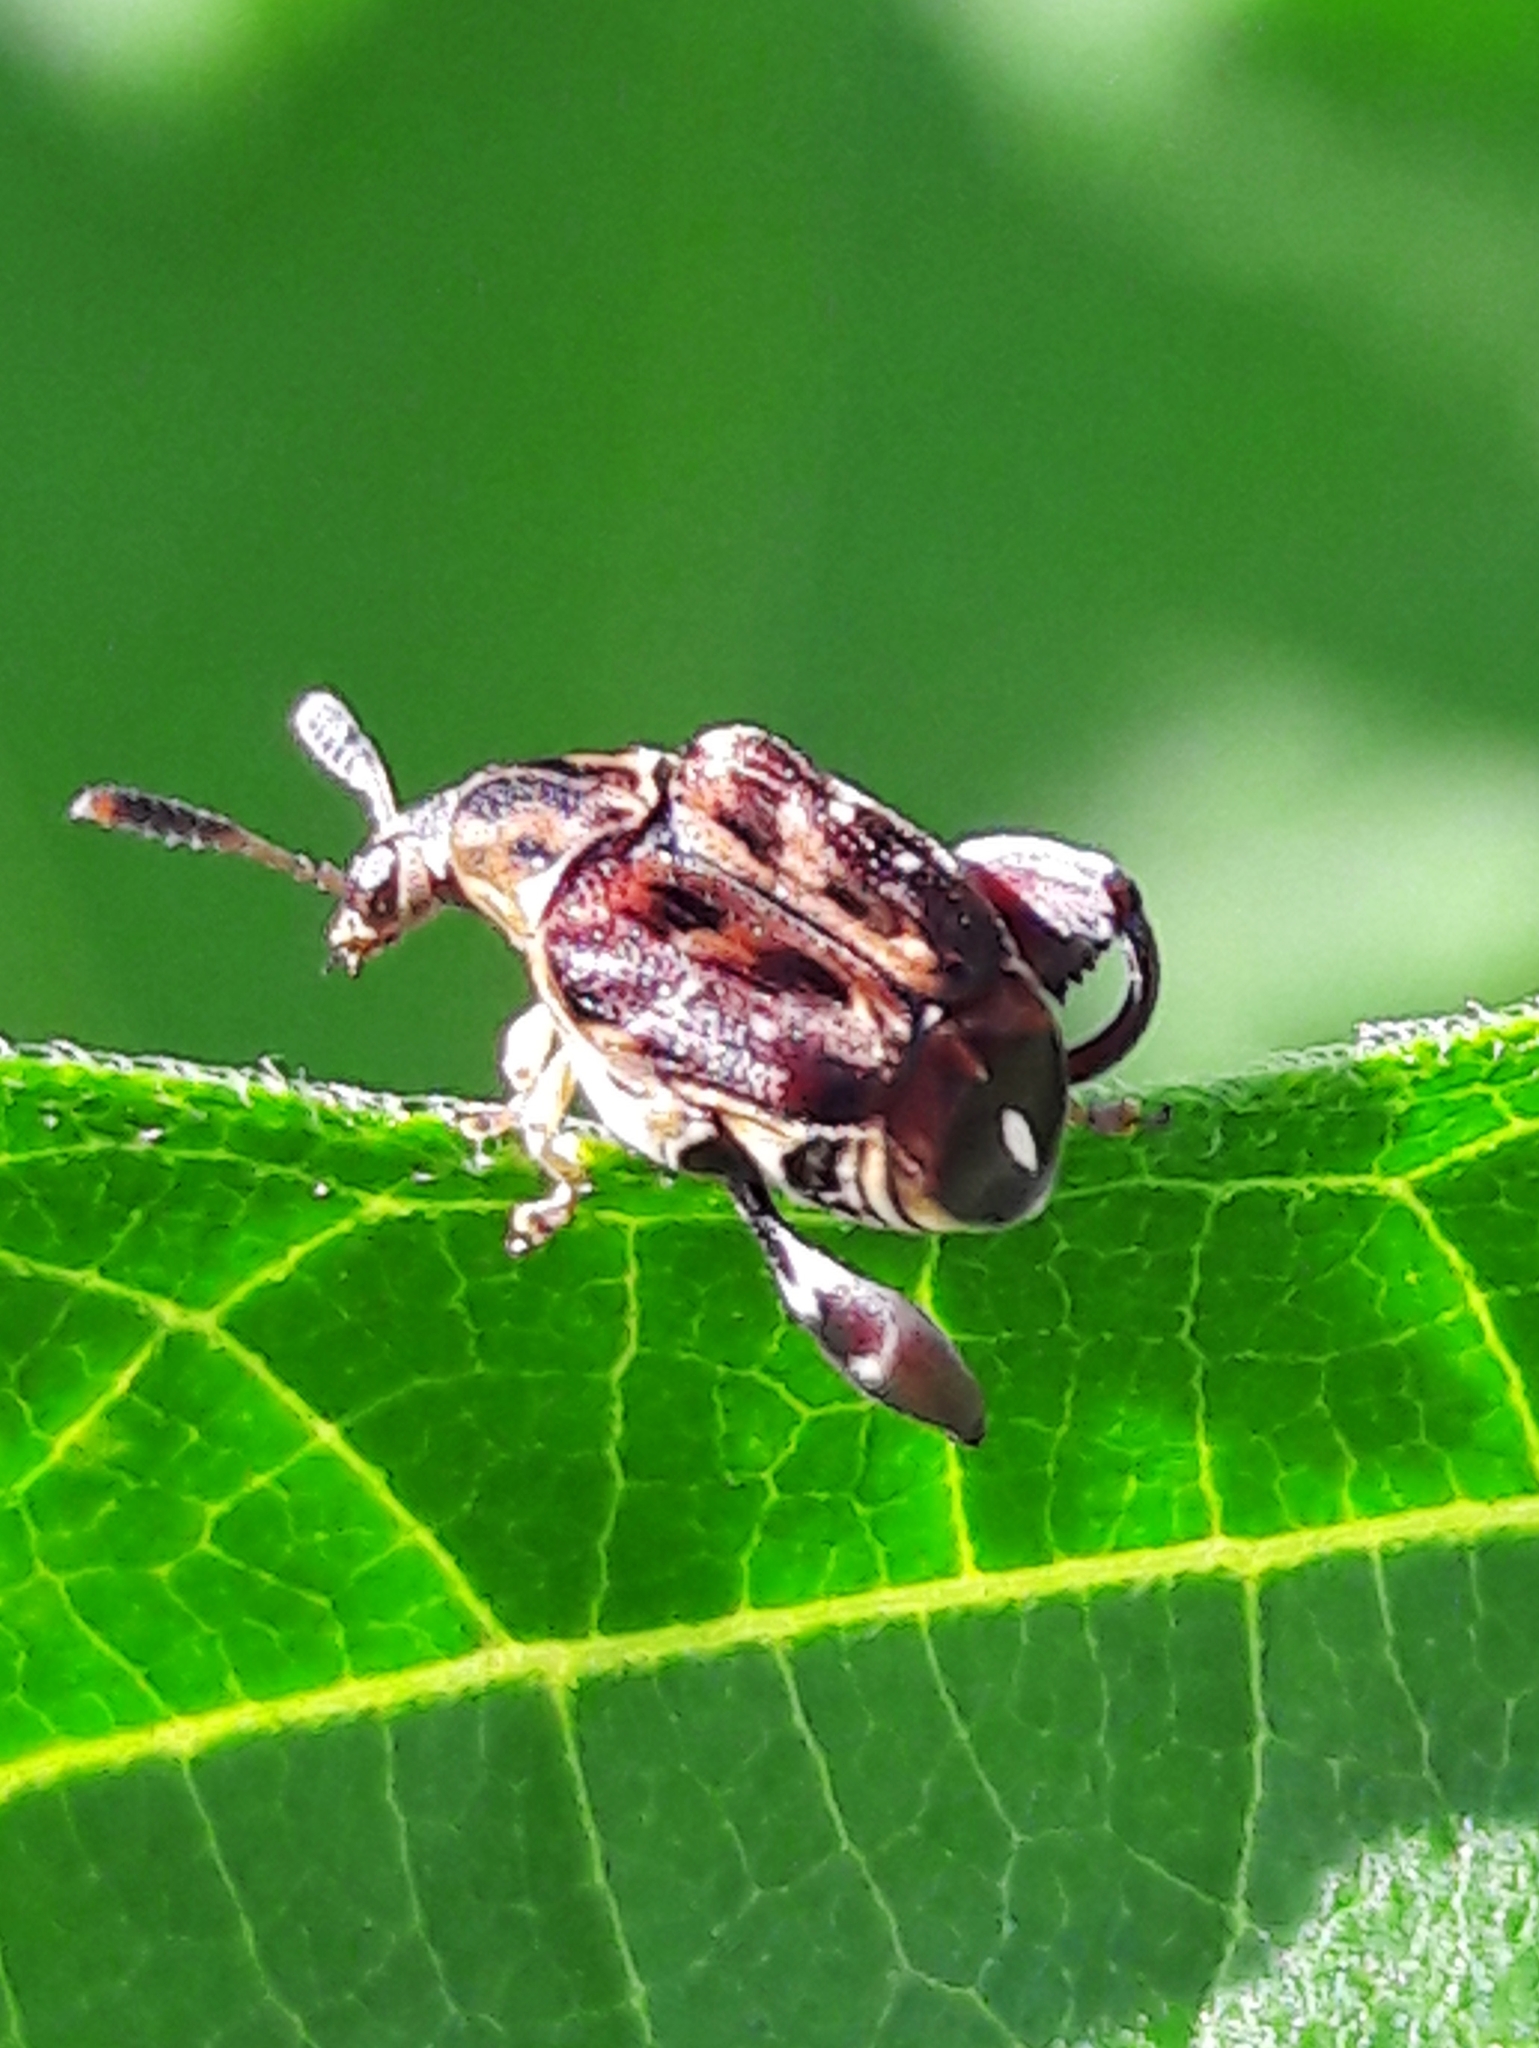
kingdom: Animalia
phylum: Arthropoda
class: Insecta
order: Coleoptera
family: Chrysomelidae
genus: Pygiopachymerus
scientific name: Pygiopachymerus lineola
